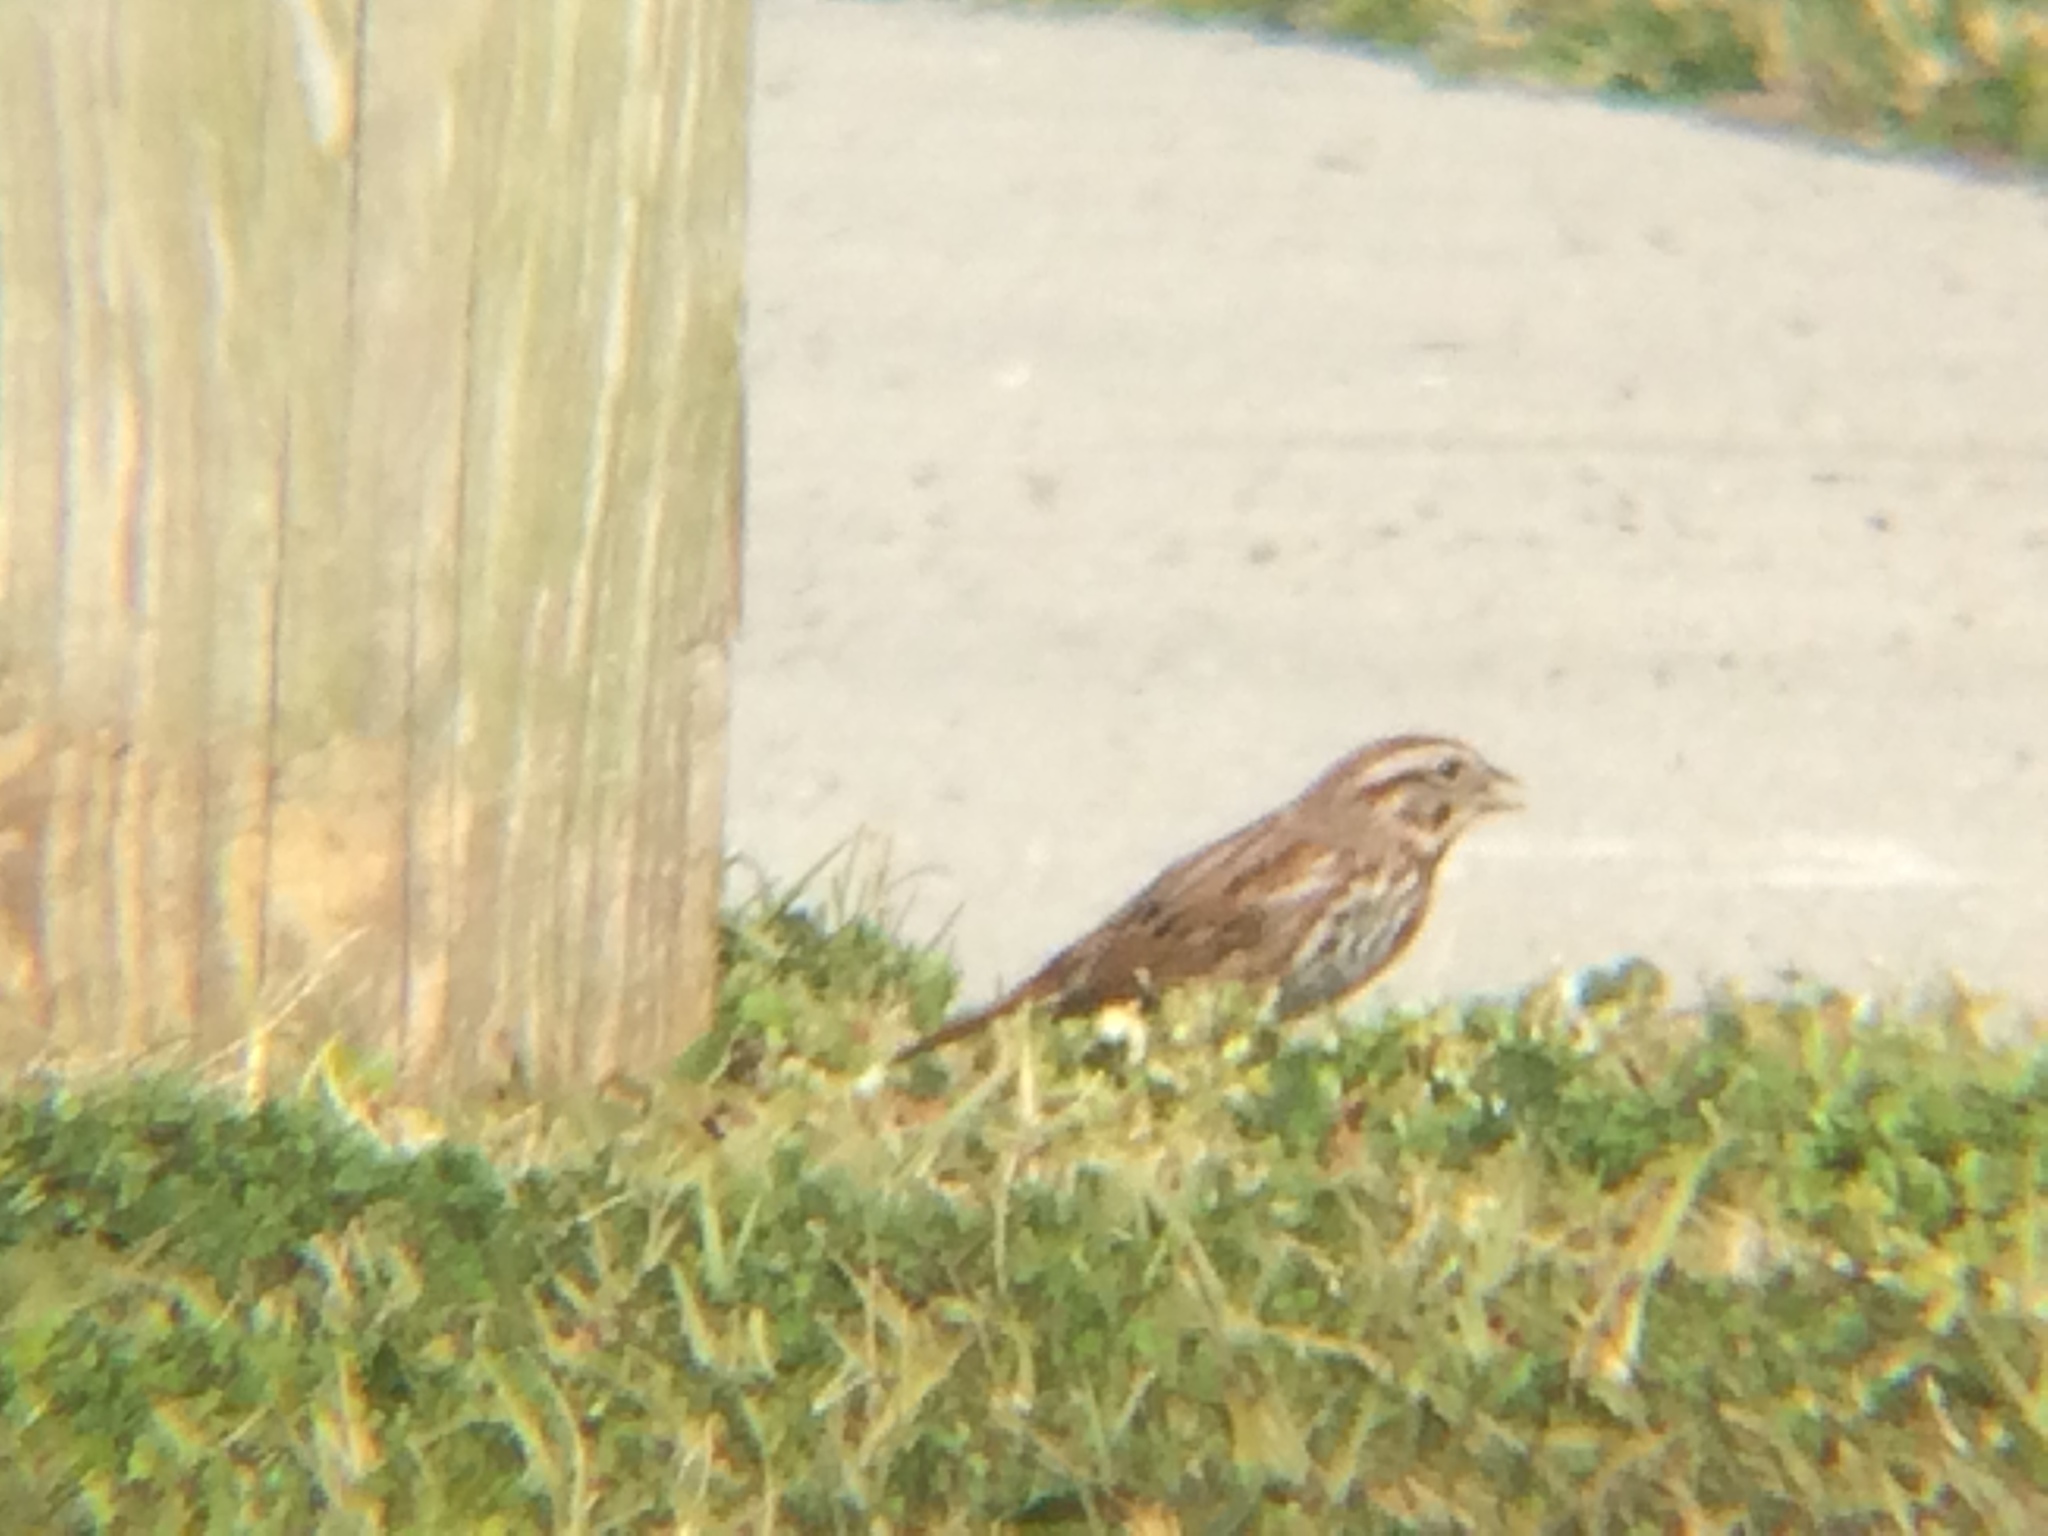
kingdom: Animalia
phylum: Chordata
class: Aves
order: Passeriformes
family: Passerellidae
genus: Melospiza
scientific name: Melospiza melodia
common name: Song sparrow
